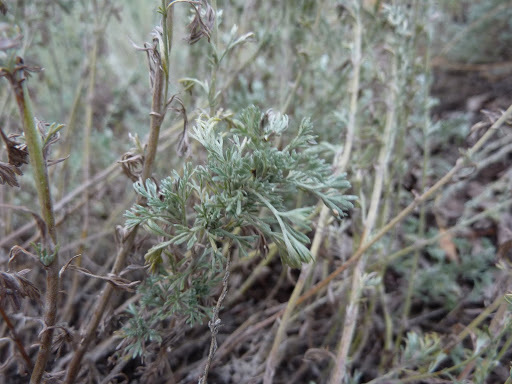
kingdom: Plantae
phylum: Tracheophyta
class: Magnoliopsida
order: Asterales
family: Asteraceae
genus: Artemisia
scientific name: Artemisia frigida
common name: Prairie sagewort
